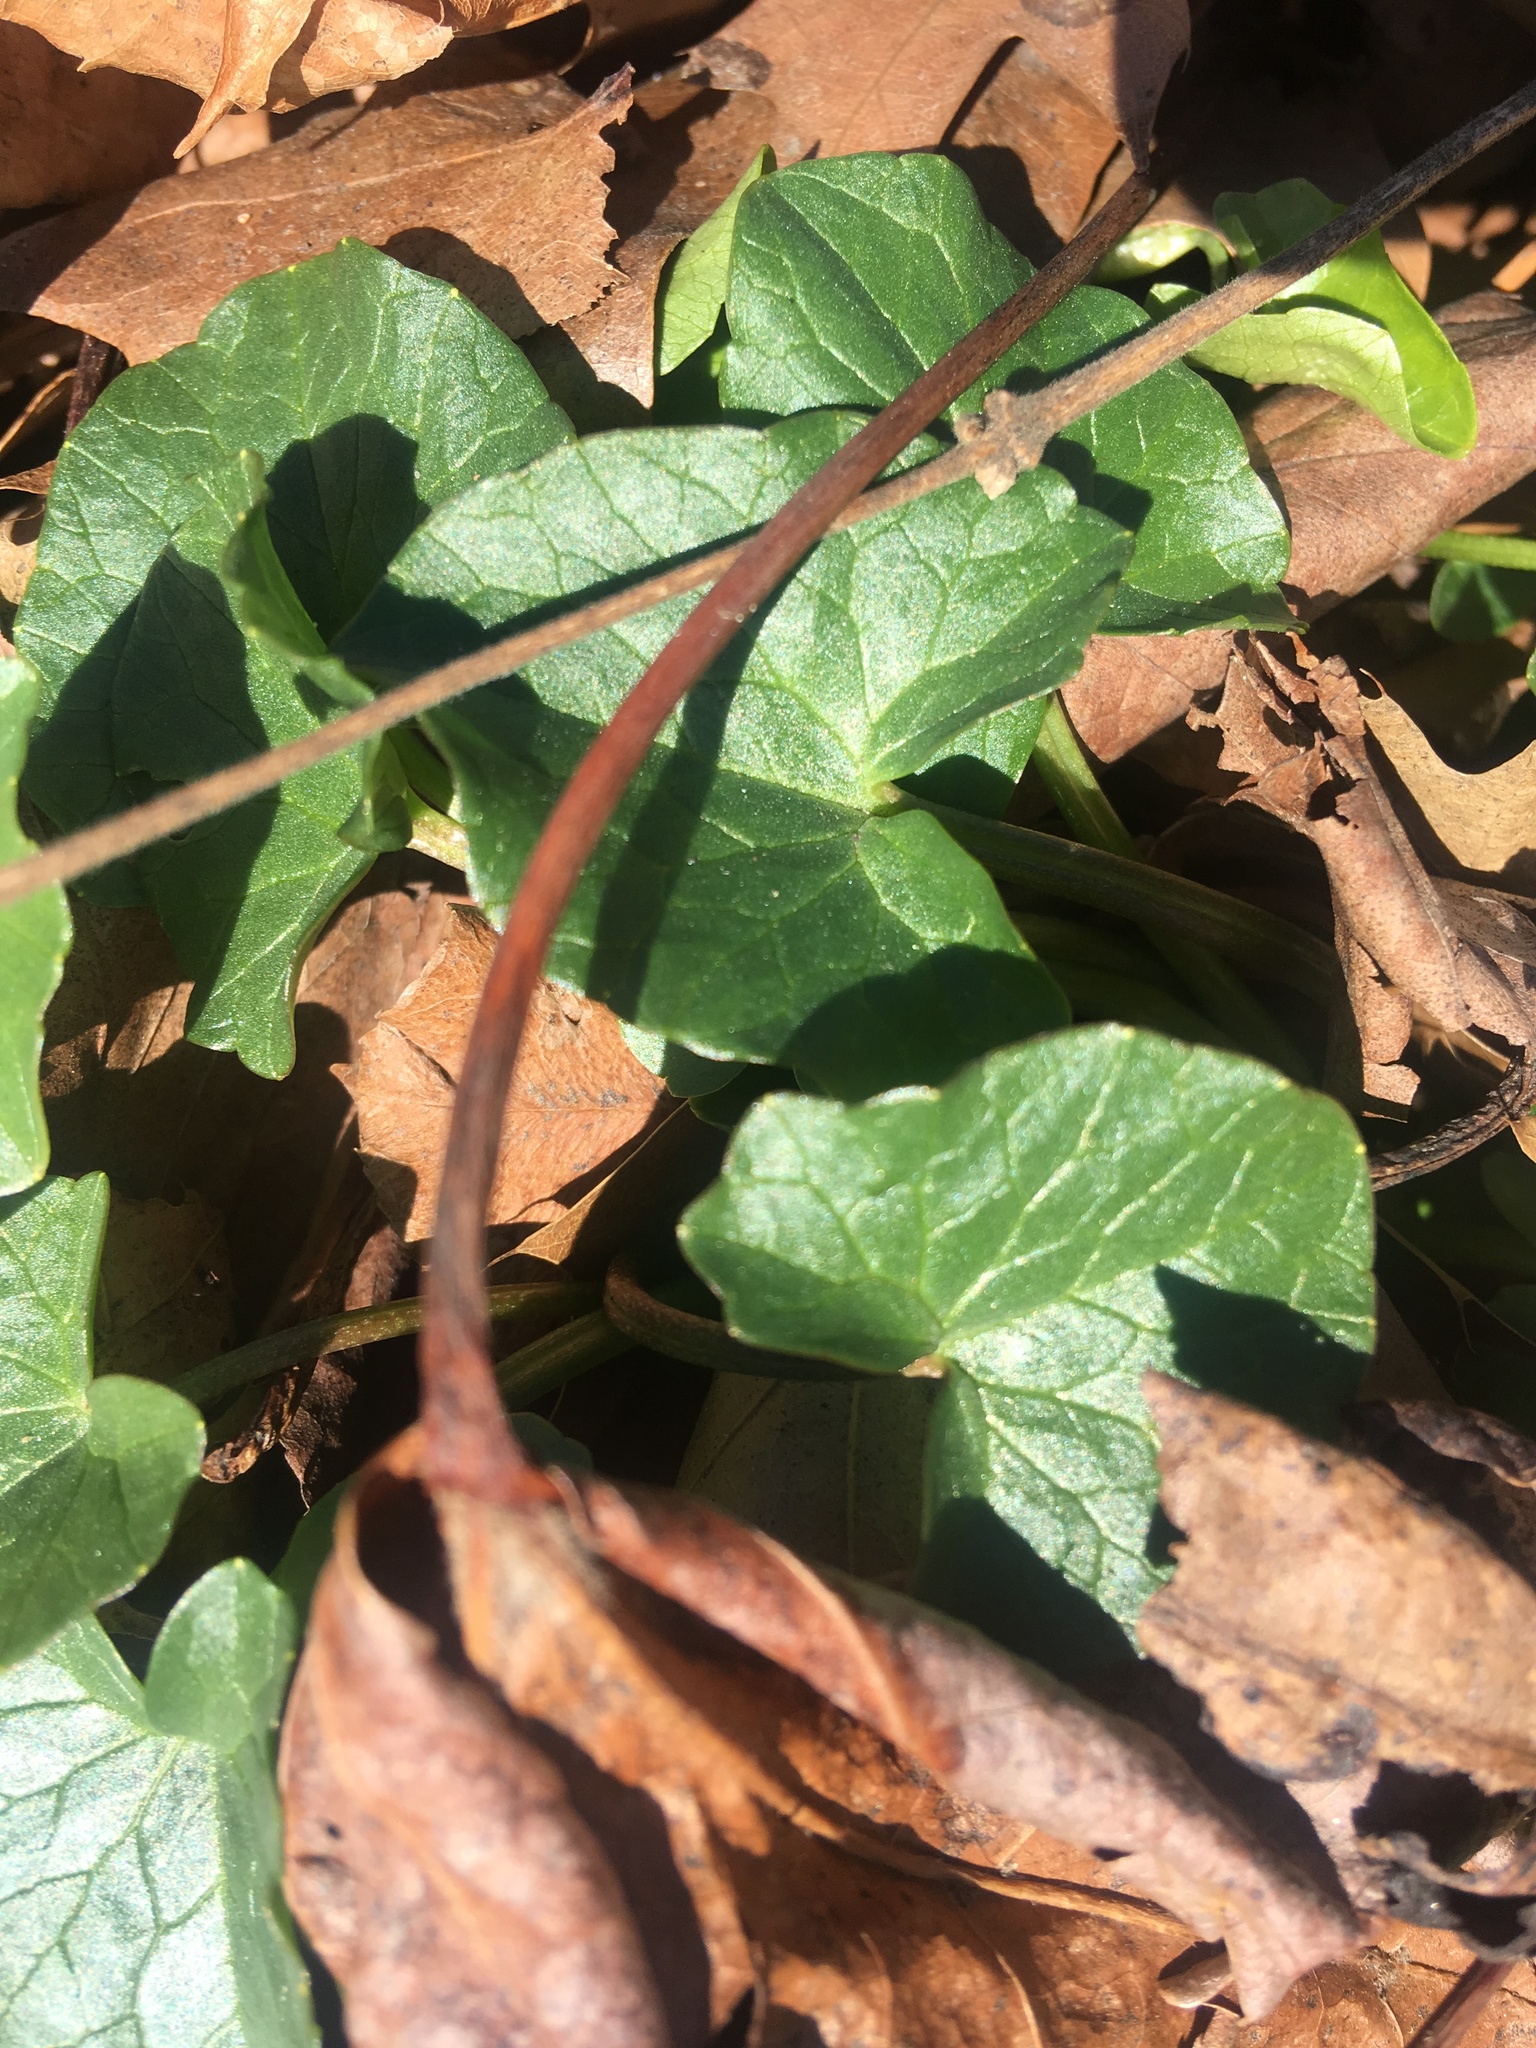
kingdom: Plantae
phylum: Tracheophyta
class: Magnoliopsida
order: Ranunculales
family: Ranunculaceae
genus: Ficaria
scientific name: Ficaria verna
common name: Lesser celandine
